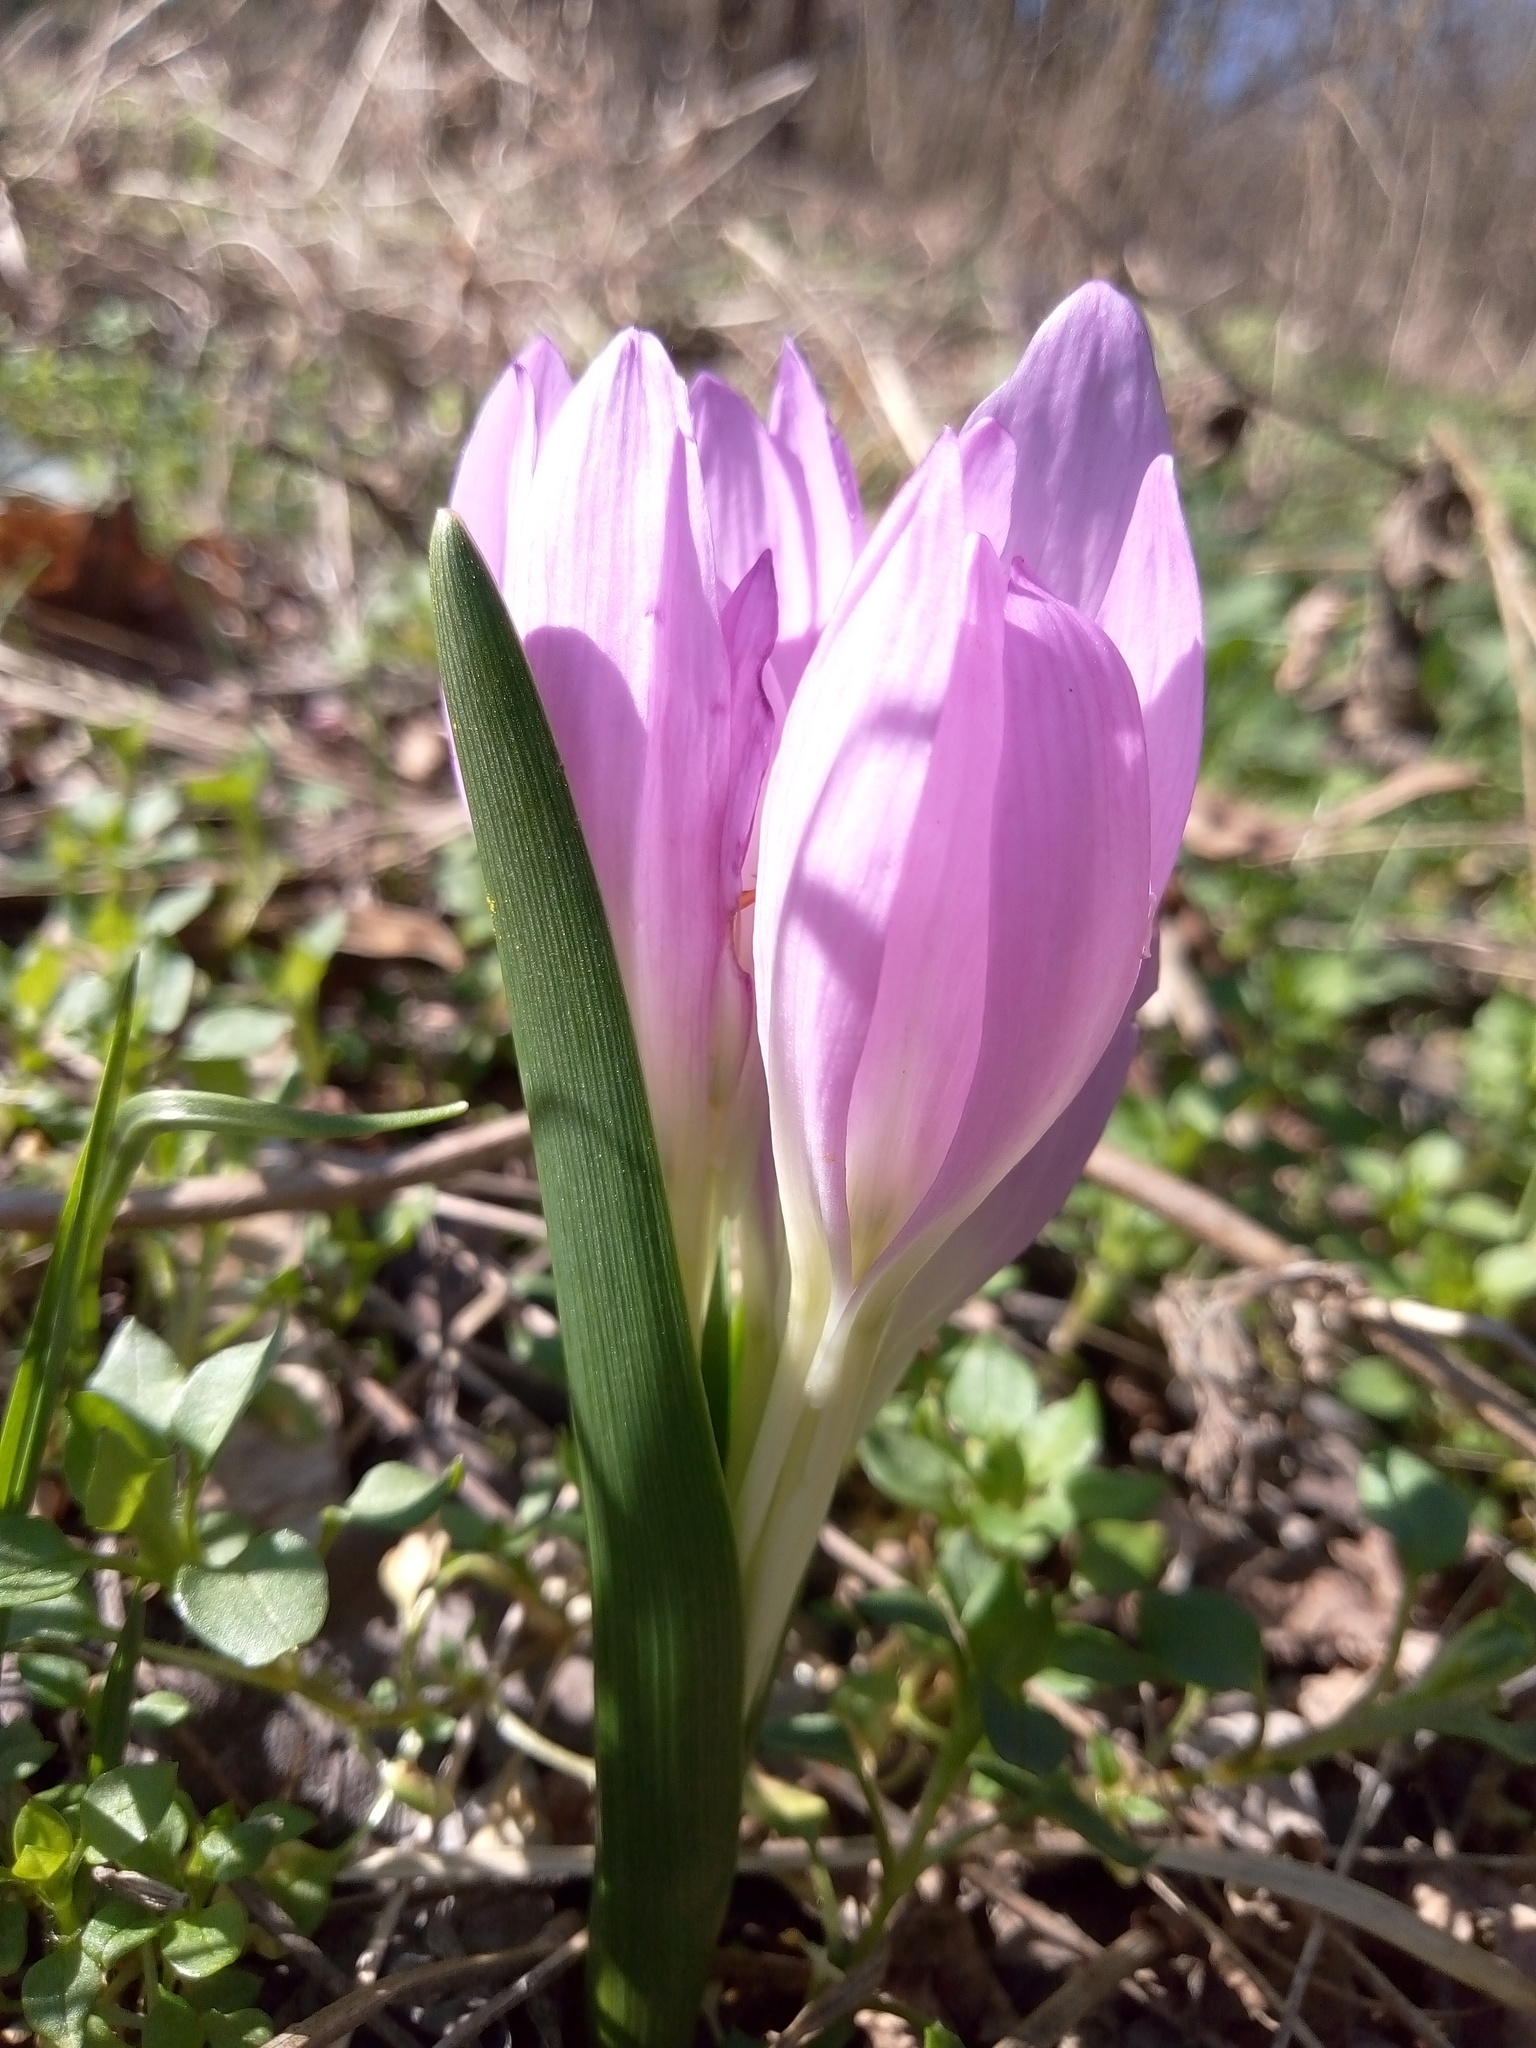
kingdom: Plantae
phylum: Tracheophyta
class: Liliopsida
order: Liliales
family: Colchicaceae
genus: Colchicum
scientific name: Colchicum bulbocodium
